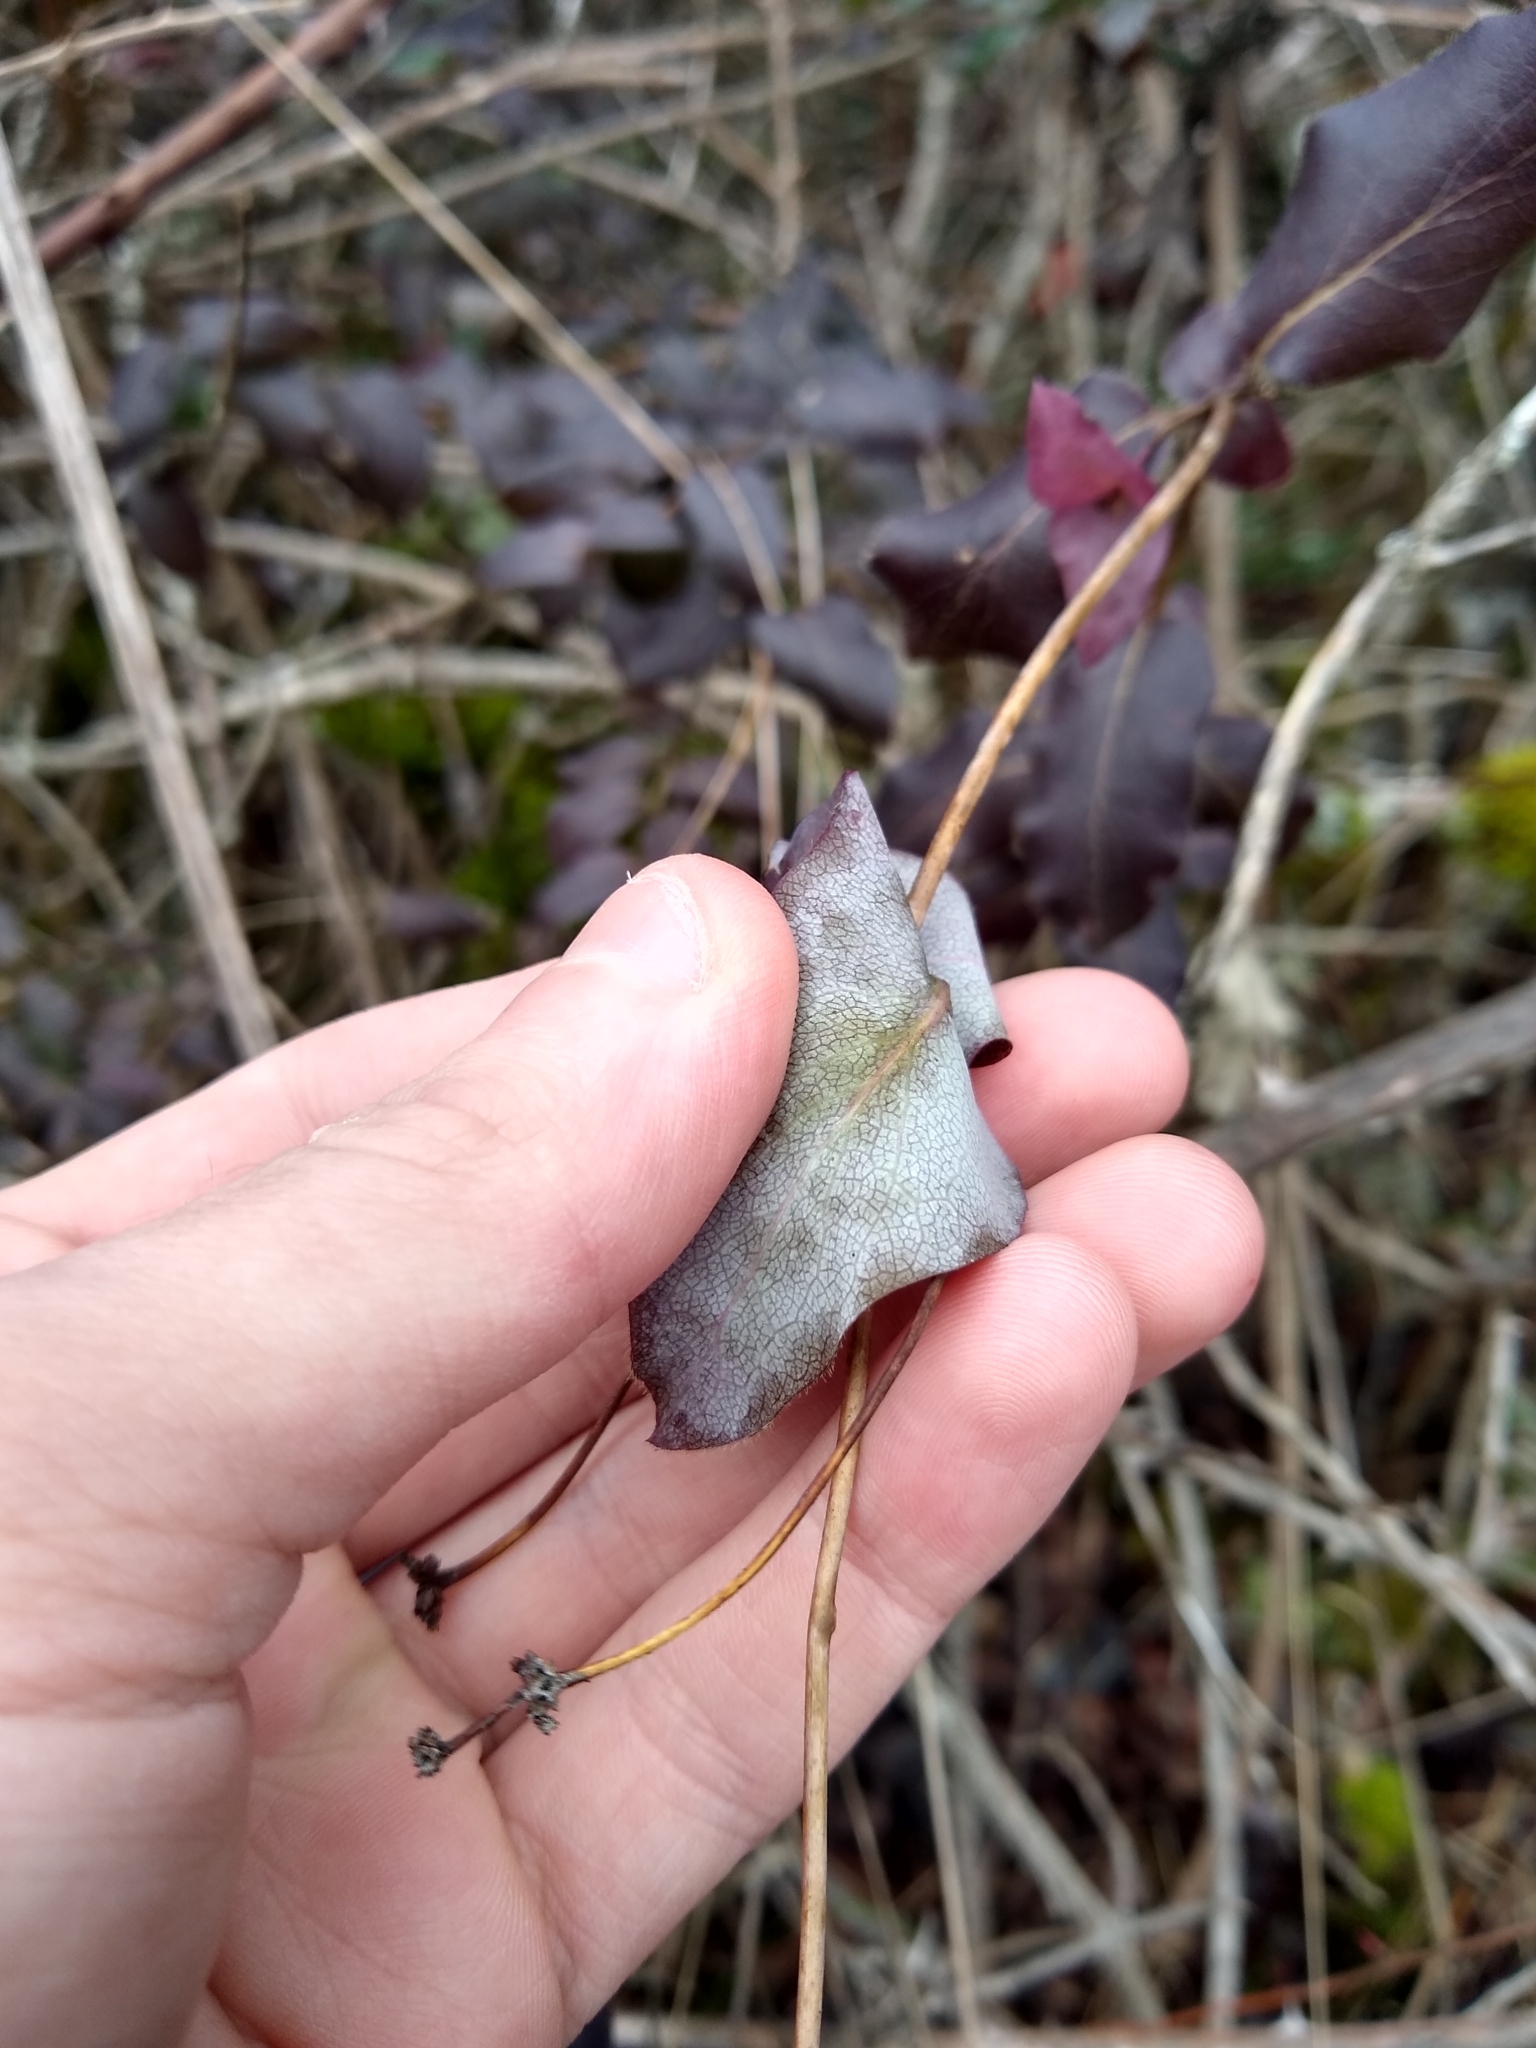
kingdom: Plantae
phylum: Tracheophyta
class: Magnoliopsida
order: Dipsacales
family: Caprifoliaceae
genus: Lonicera
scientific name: Lonicera hispidula
